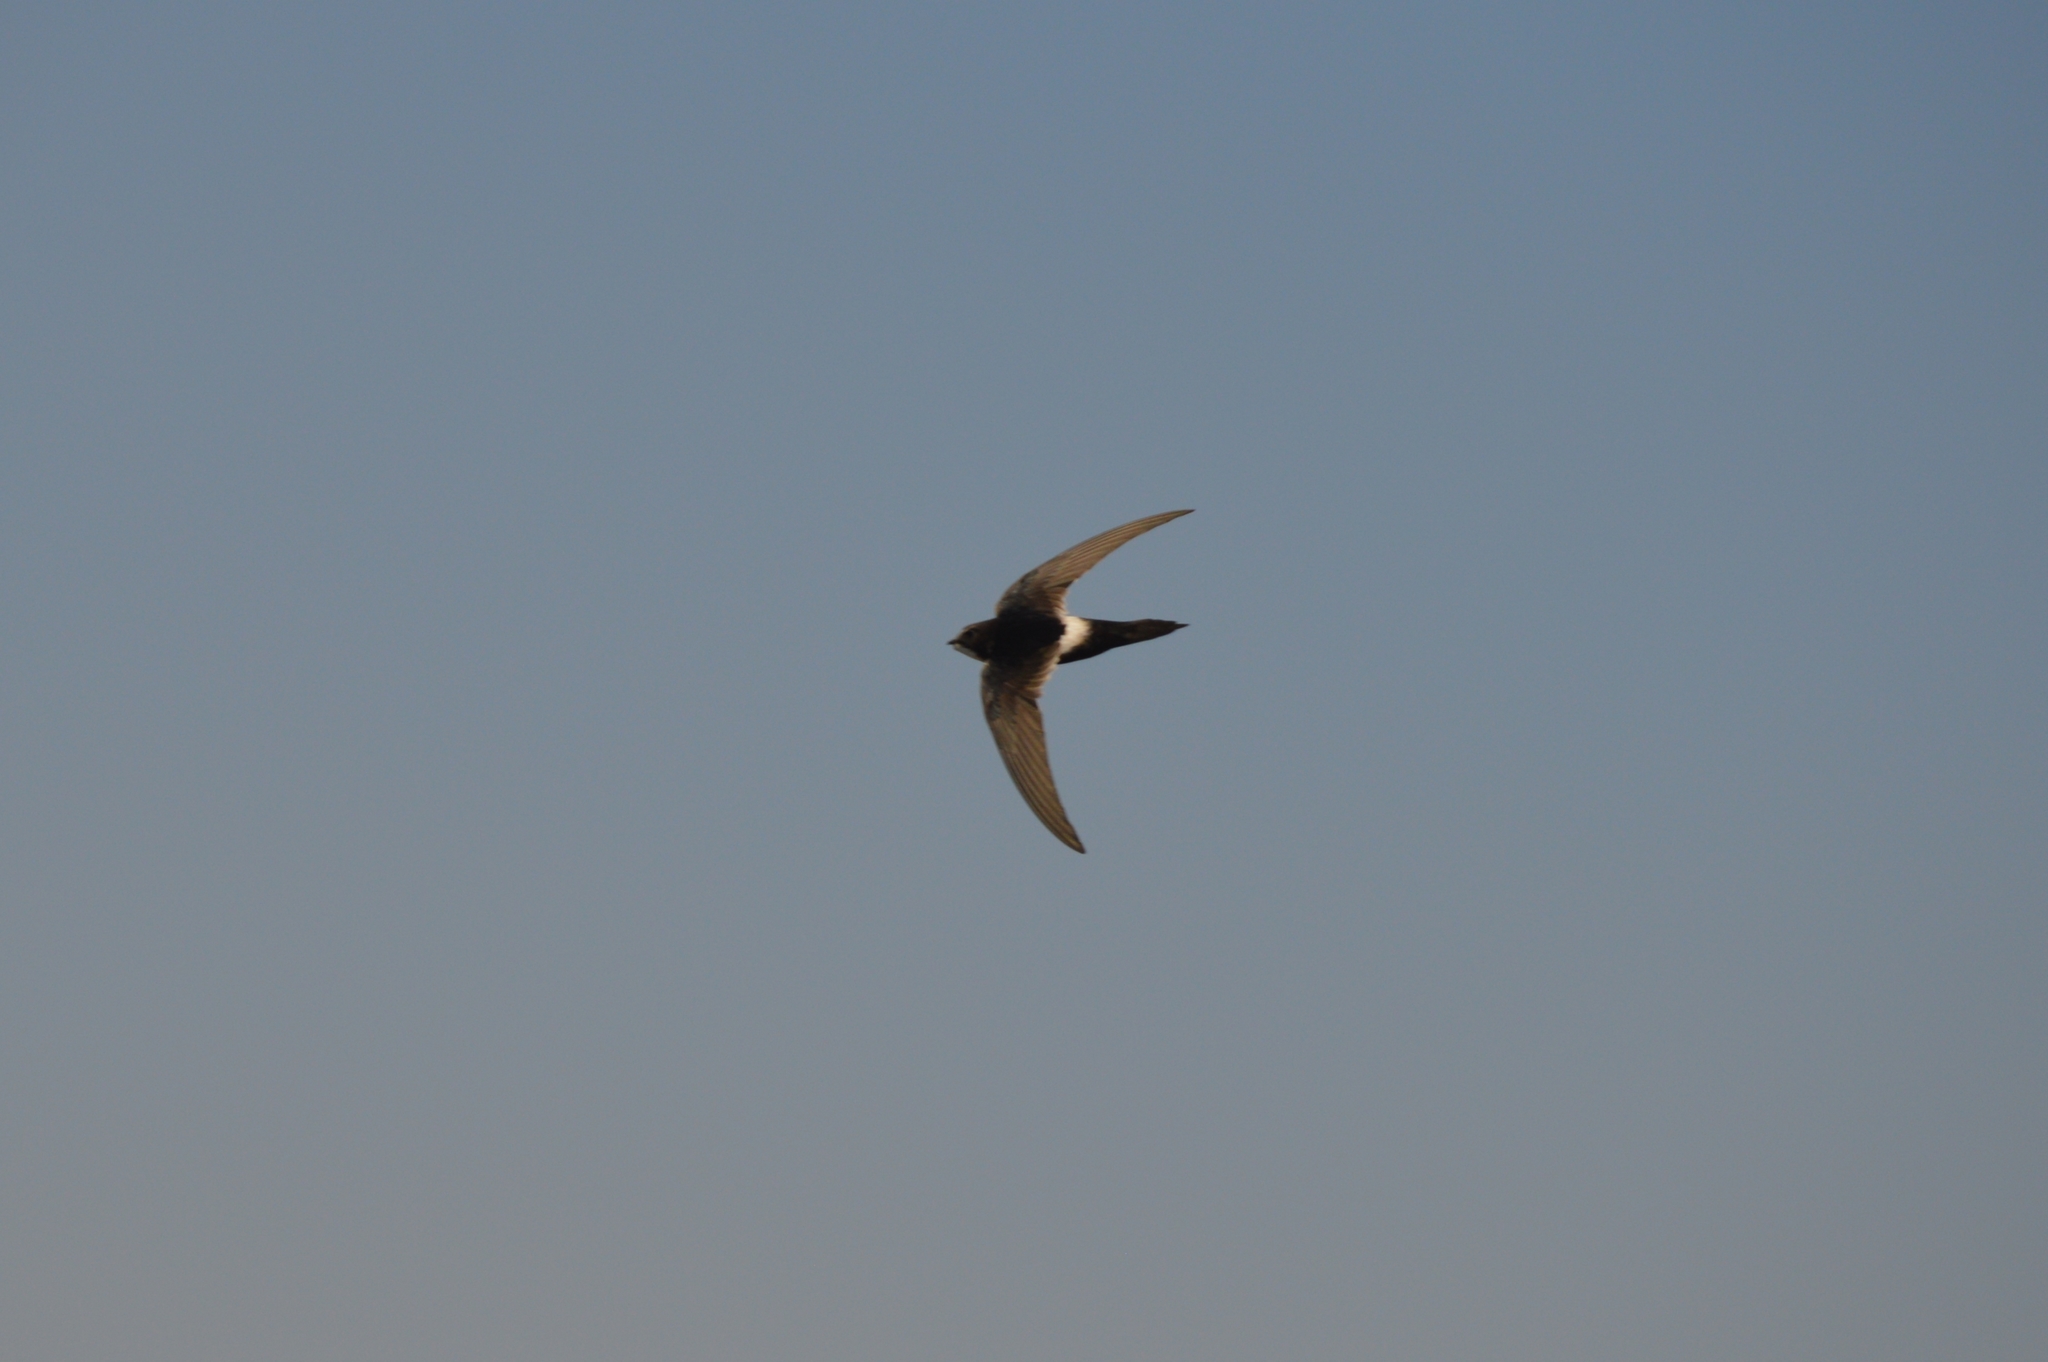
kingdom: Animalia
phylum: Chordata
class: Aves
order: Apodiformes
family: Apodidae
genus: Apus
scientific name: Apus caffer
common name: White-rumped swift
